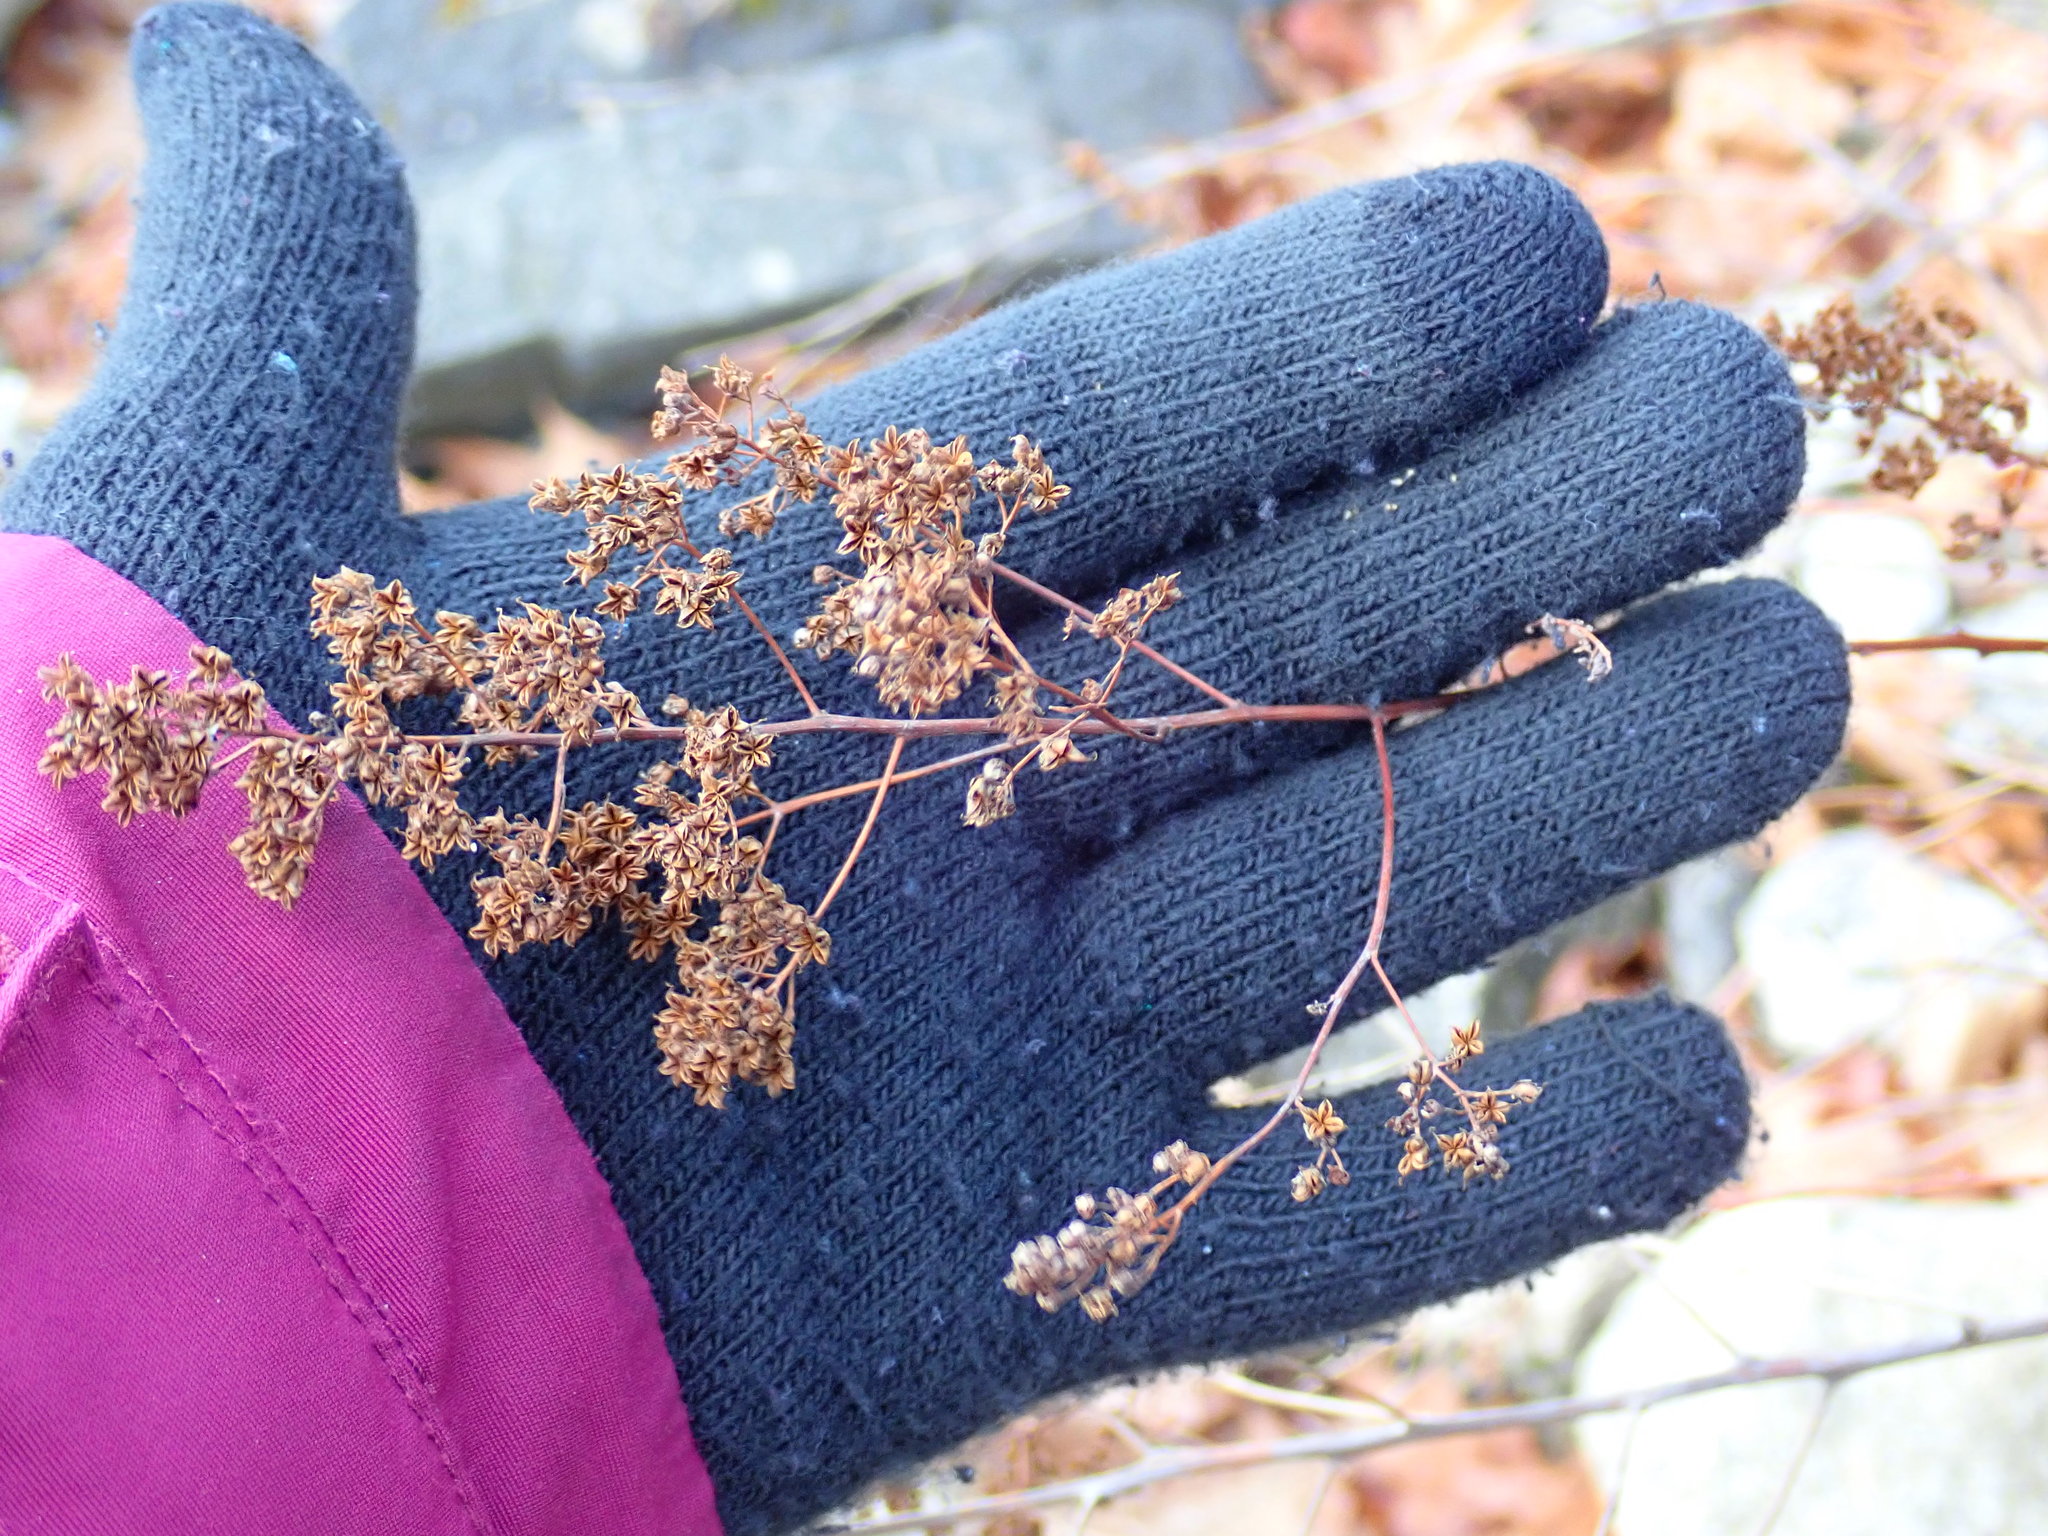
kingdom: Plantae
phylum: Tracheophyta
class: Magnoliopsida
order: Rosales
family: Rosaceae
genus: Spiraea
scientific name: Spiraea alba
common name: Pale bridewort
